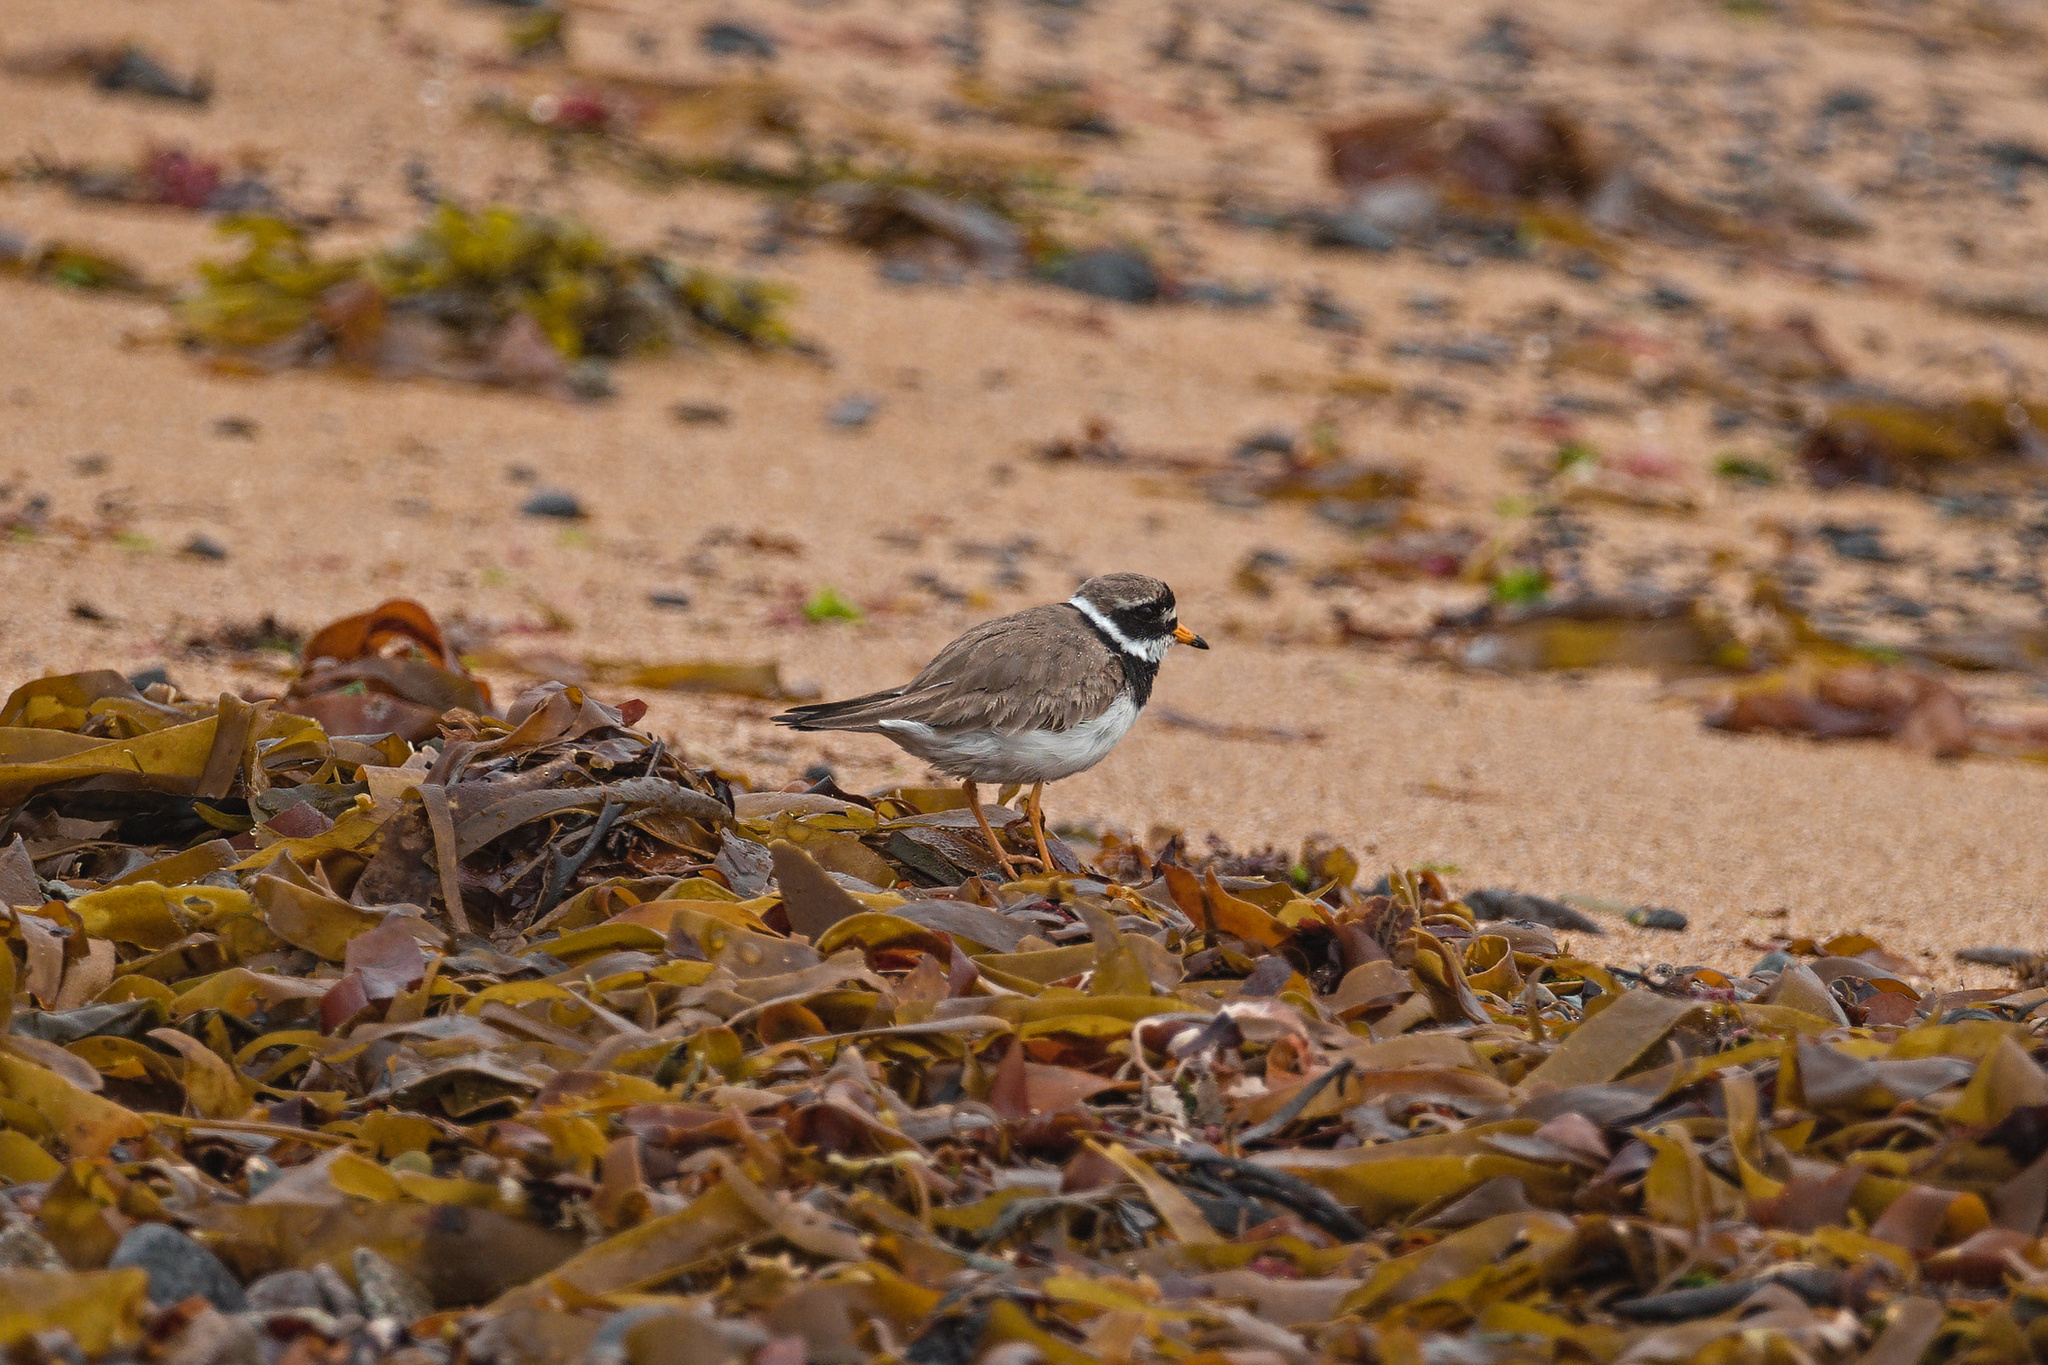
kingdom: Animalia
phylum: Chordata
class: Aves
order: Charadriiformes
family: Charadriidae
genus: Charadrius
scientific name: Charadrius hiaticula
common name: Common ringed plover
